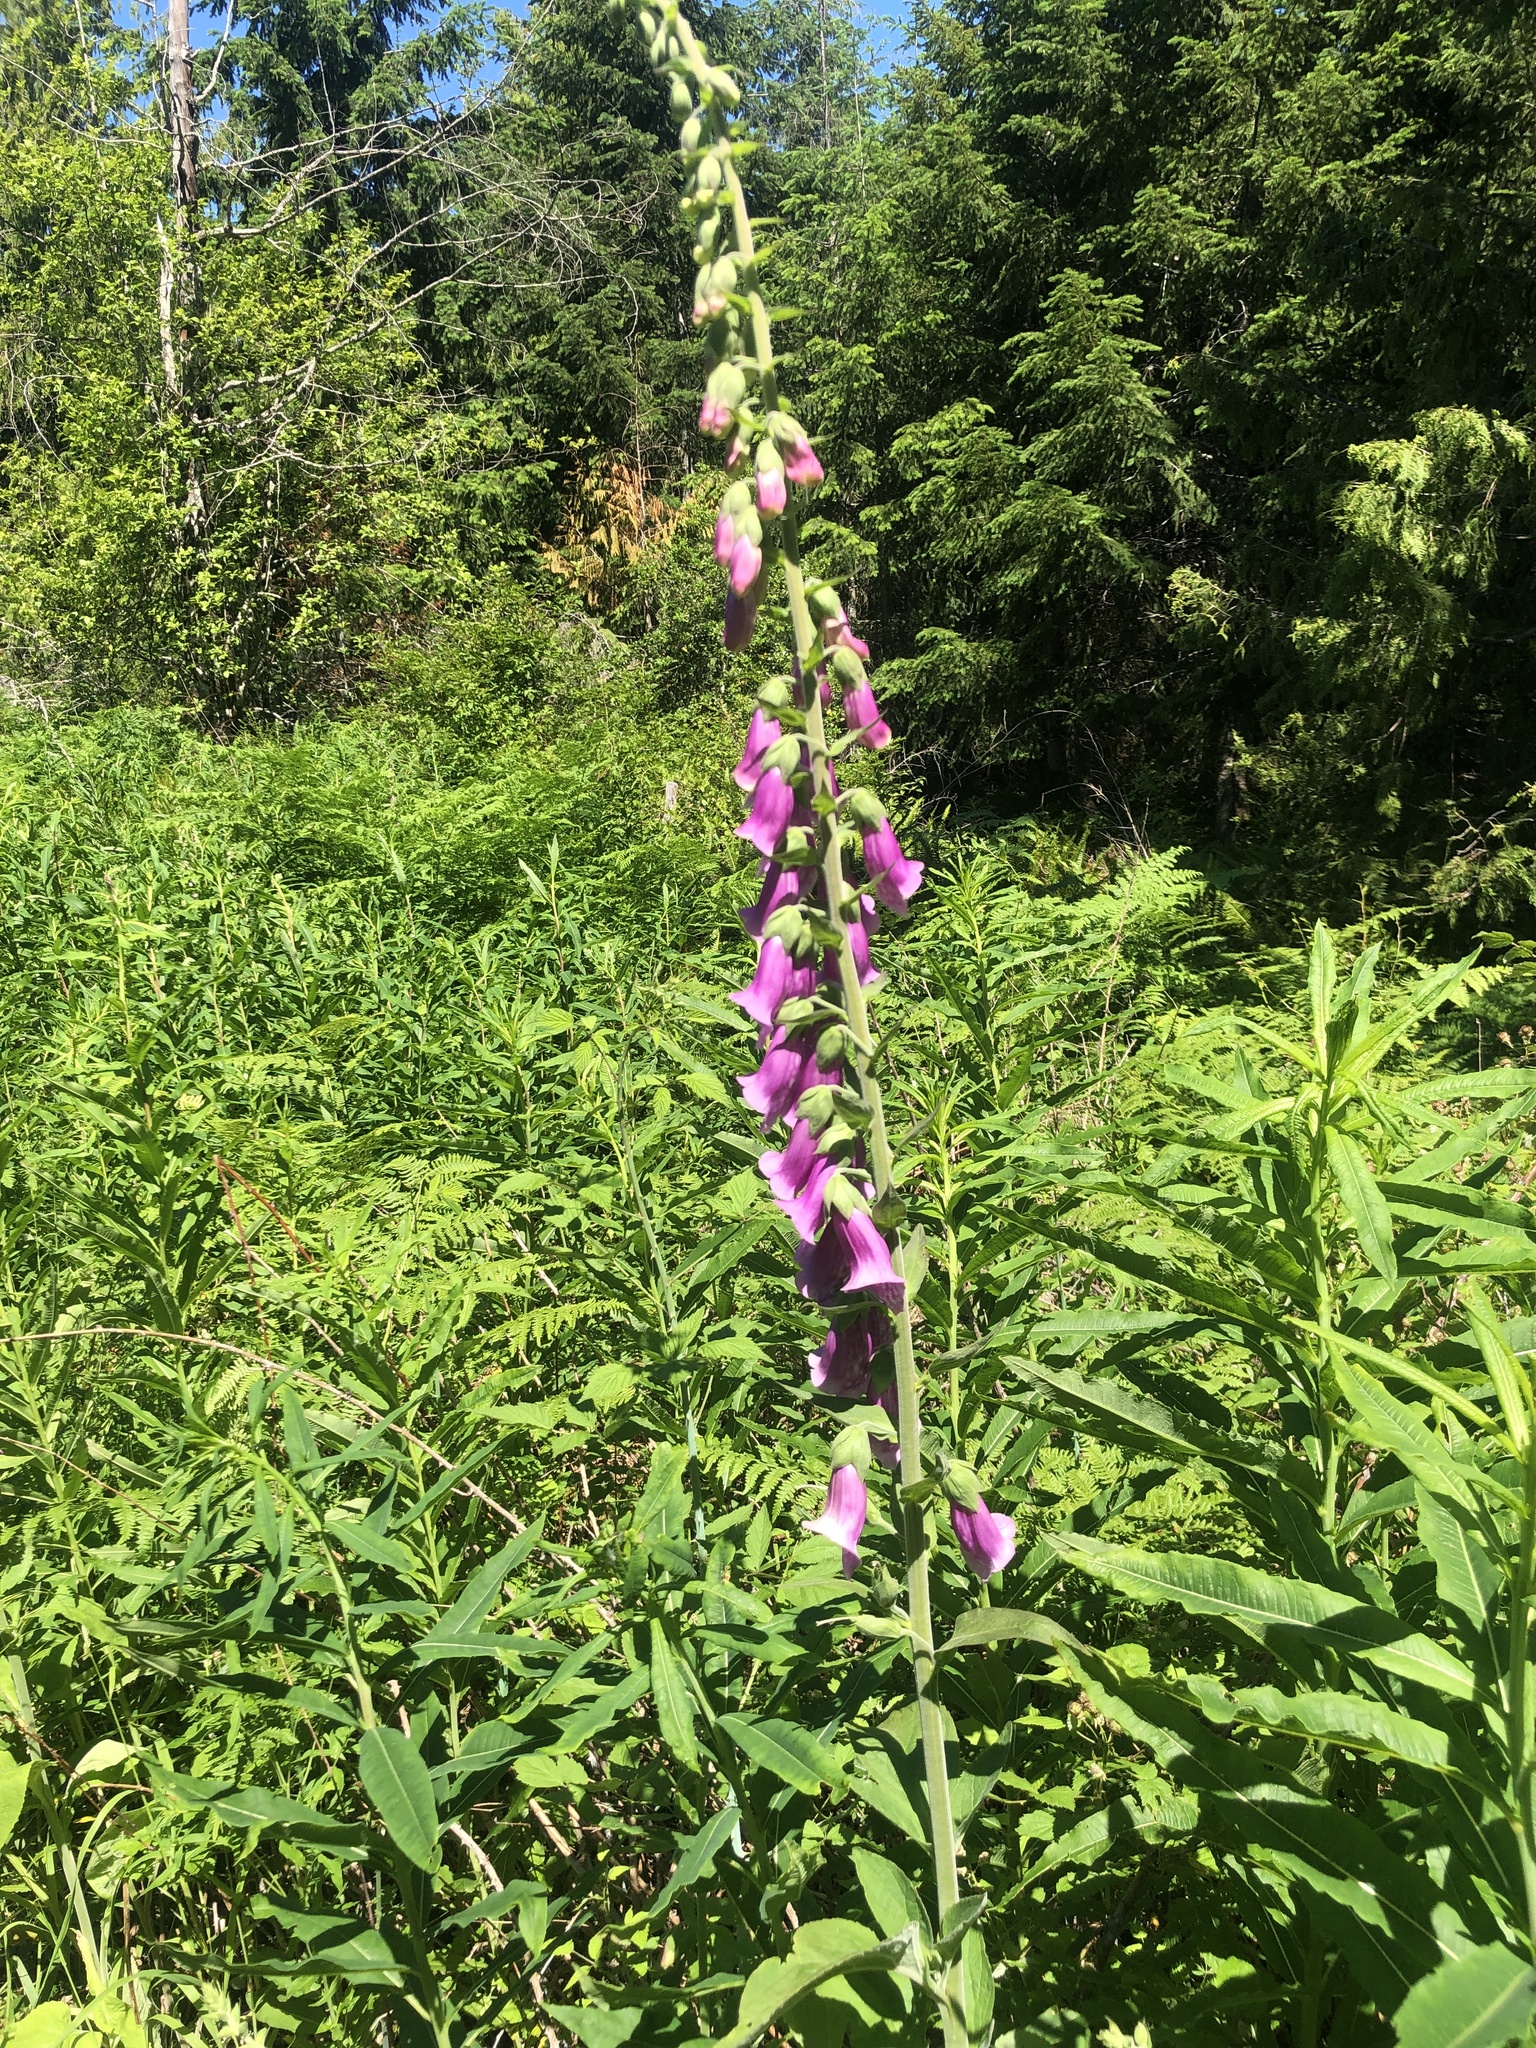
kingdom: Plantae
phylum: Tracheophyta
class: Magnoliopsida
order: Lamiales
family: Plantaginaceae
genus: Digitalis
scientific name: Digitalis purpurea
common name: Foxglove
